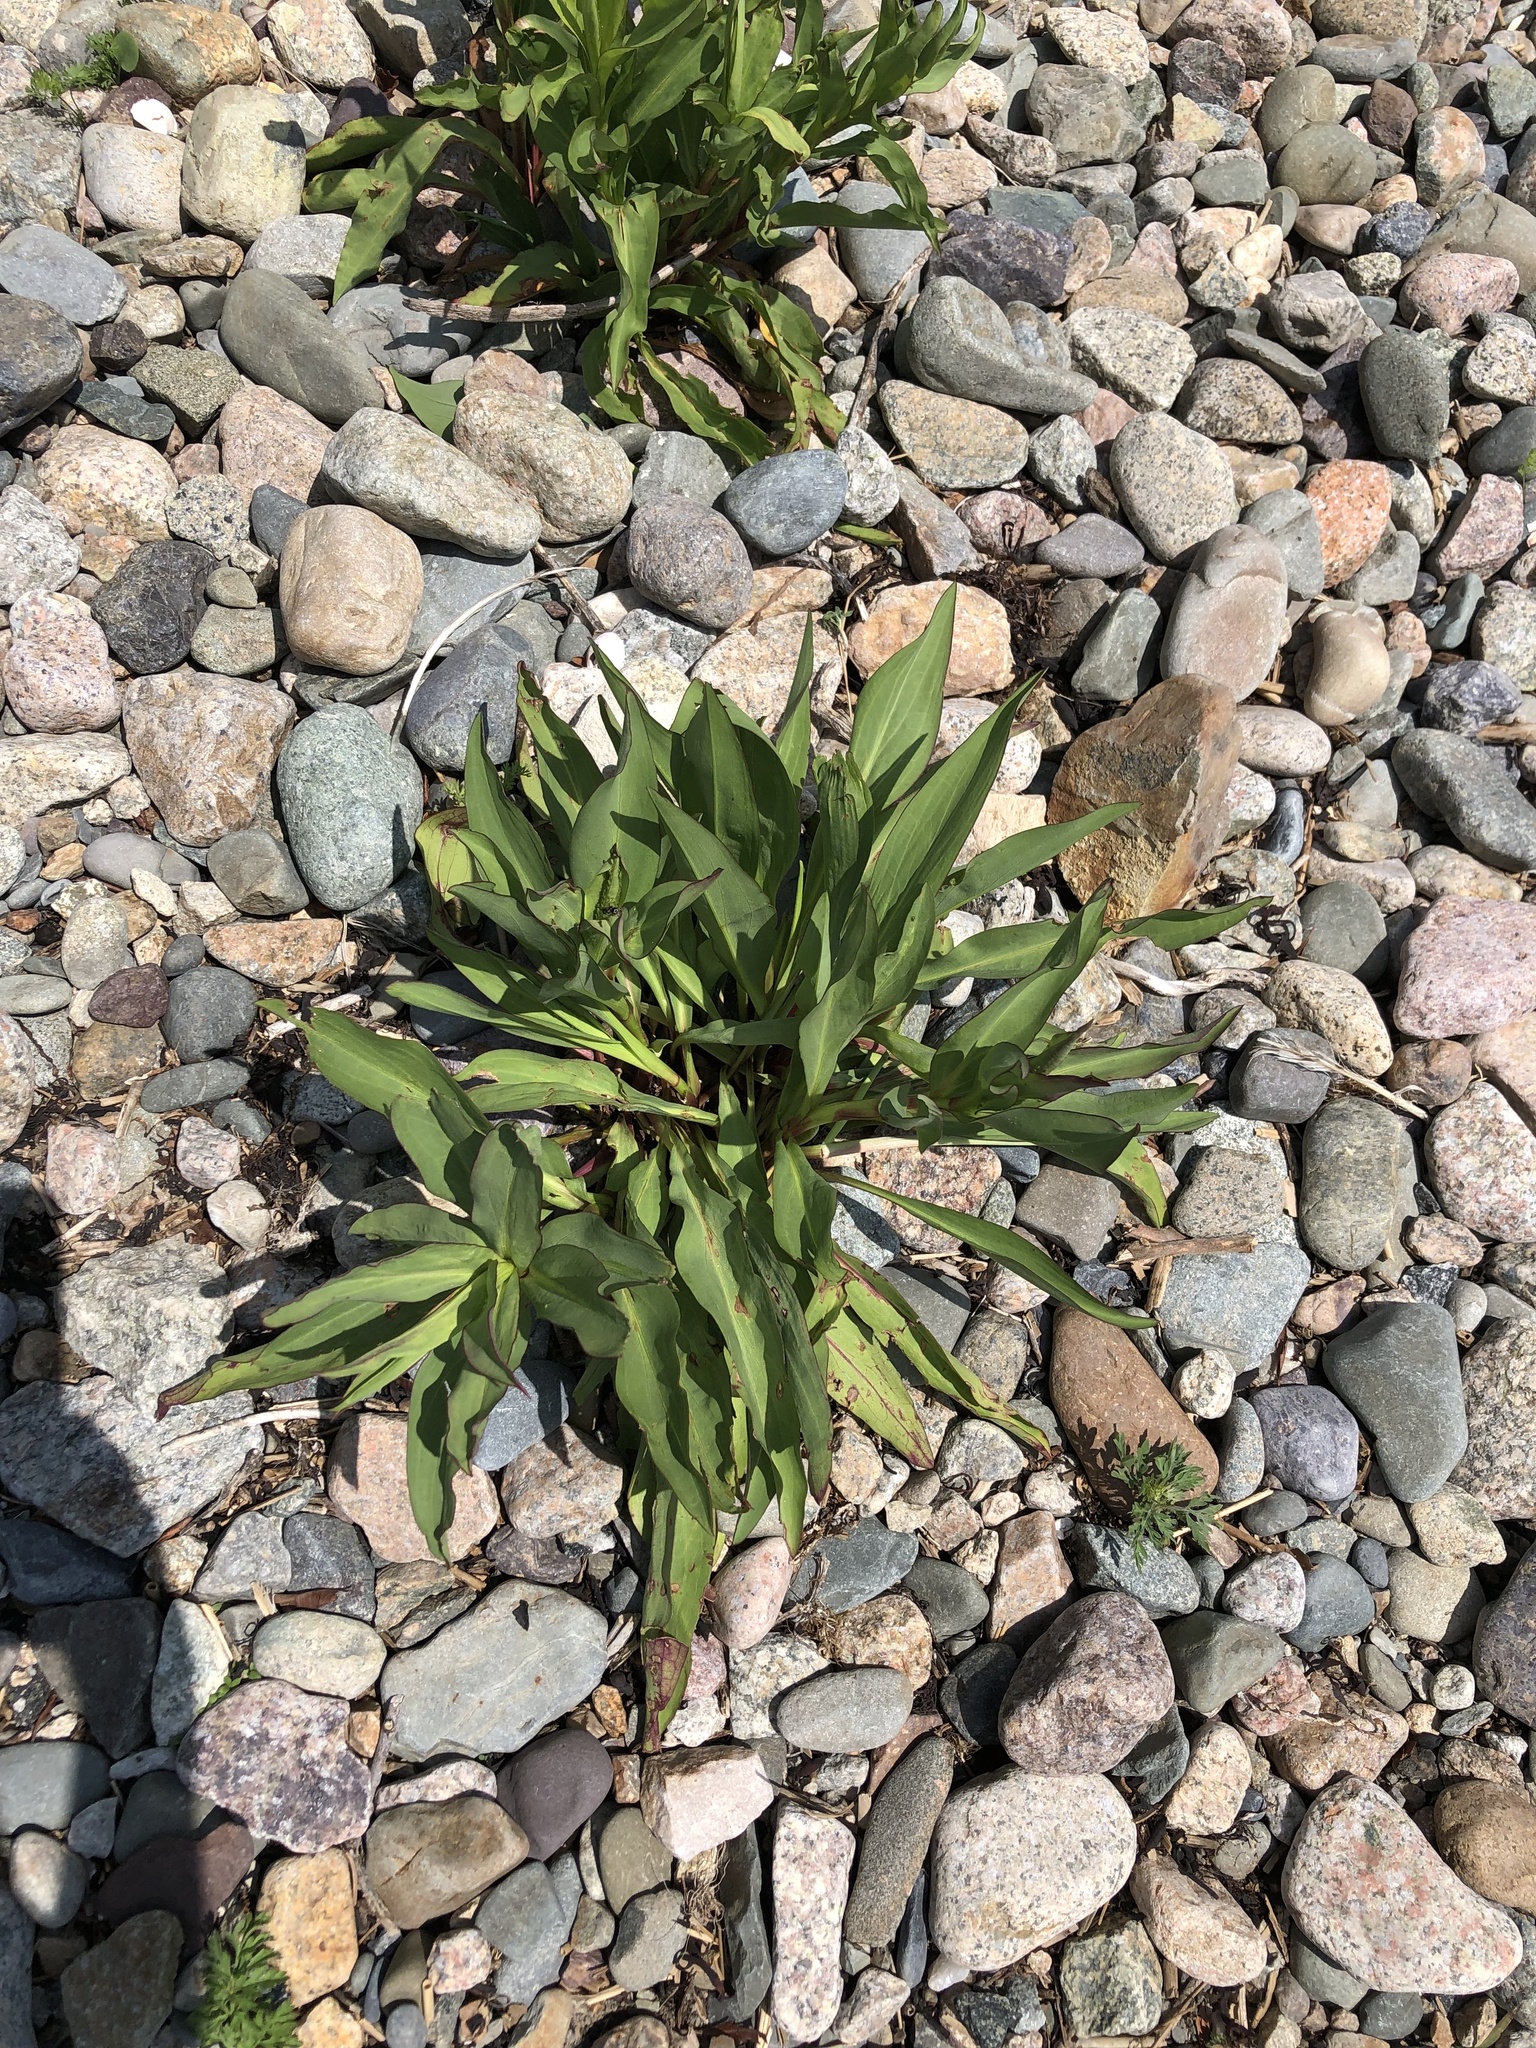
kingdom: Plantae
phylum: Tracheophyta
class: Magnoliopsida
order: Asterales
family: Asteraceae
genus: Solidago
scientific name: Solidago sempervirens
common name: Salt-marsh goldenrod
